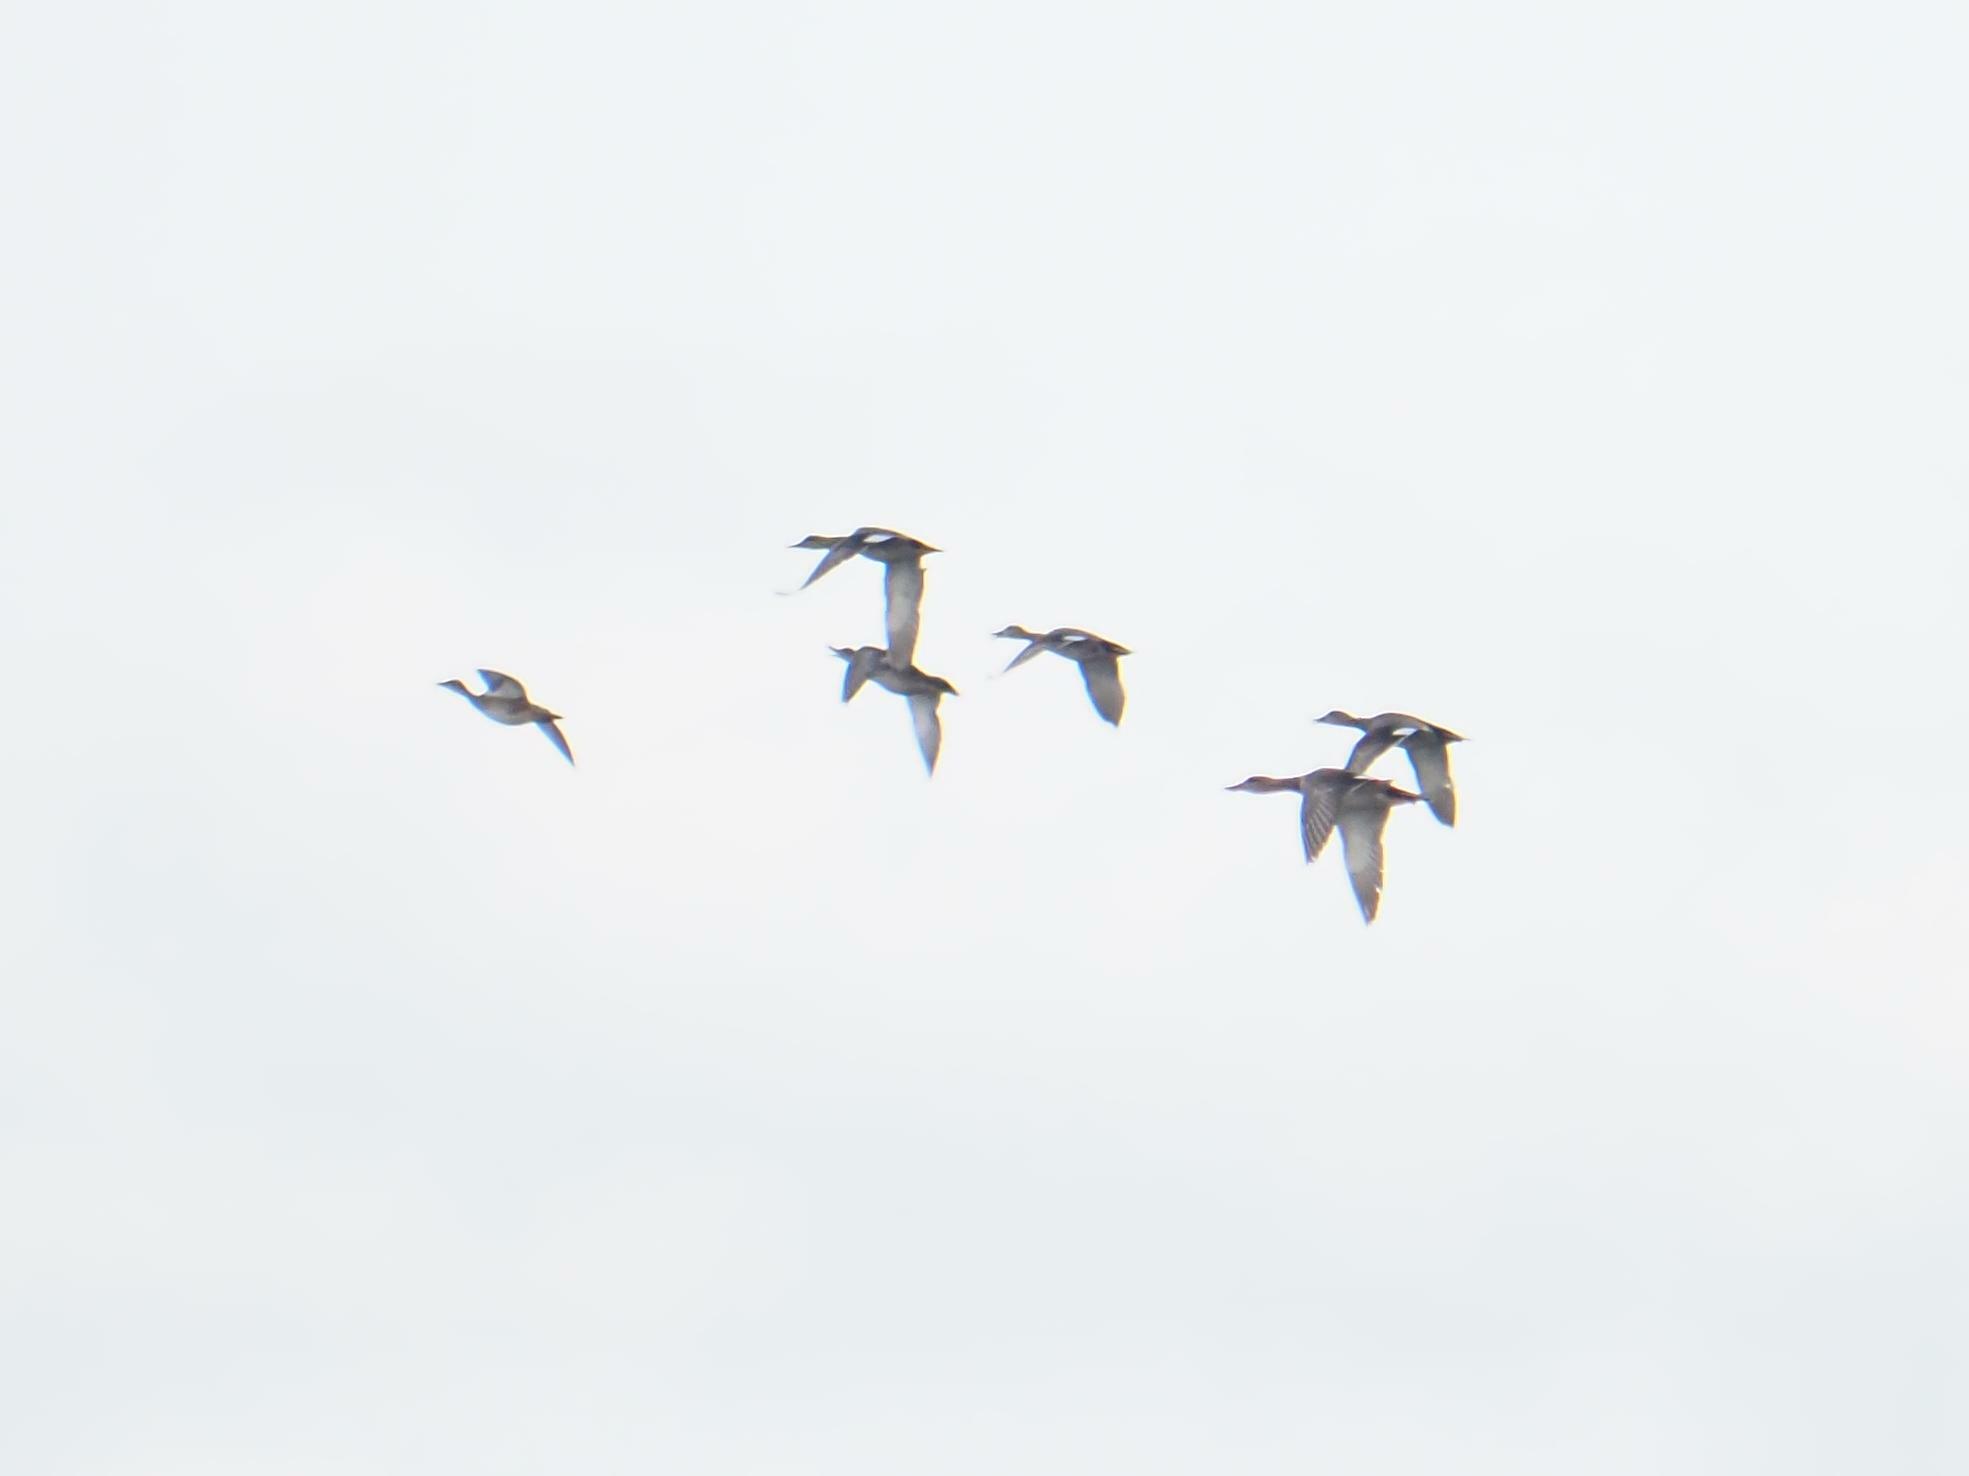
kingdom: Animalia
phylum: Chordata
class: Aves
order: Anseriformes
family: Anatidae
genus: Mareca
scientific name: Mareca strepera
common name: Gadwall
